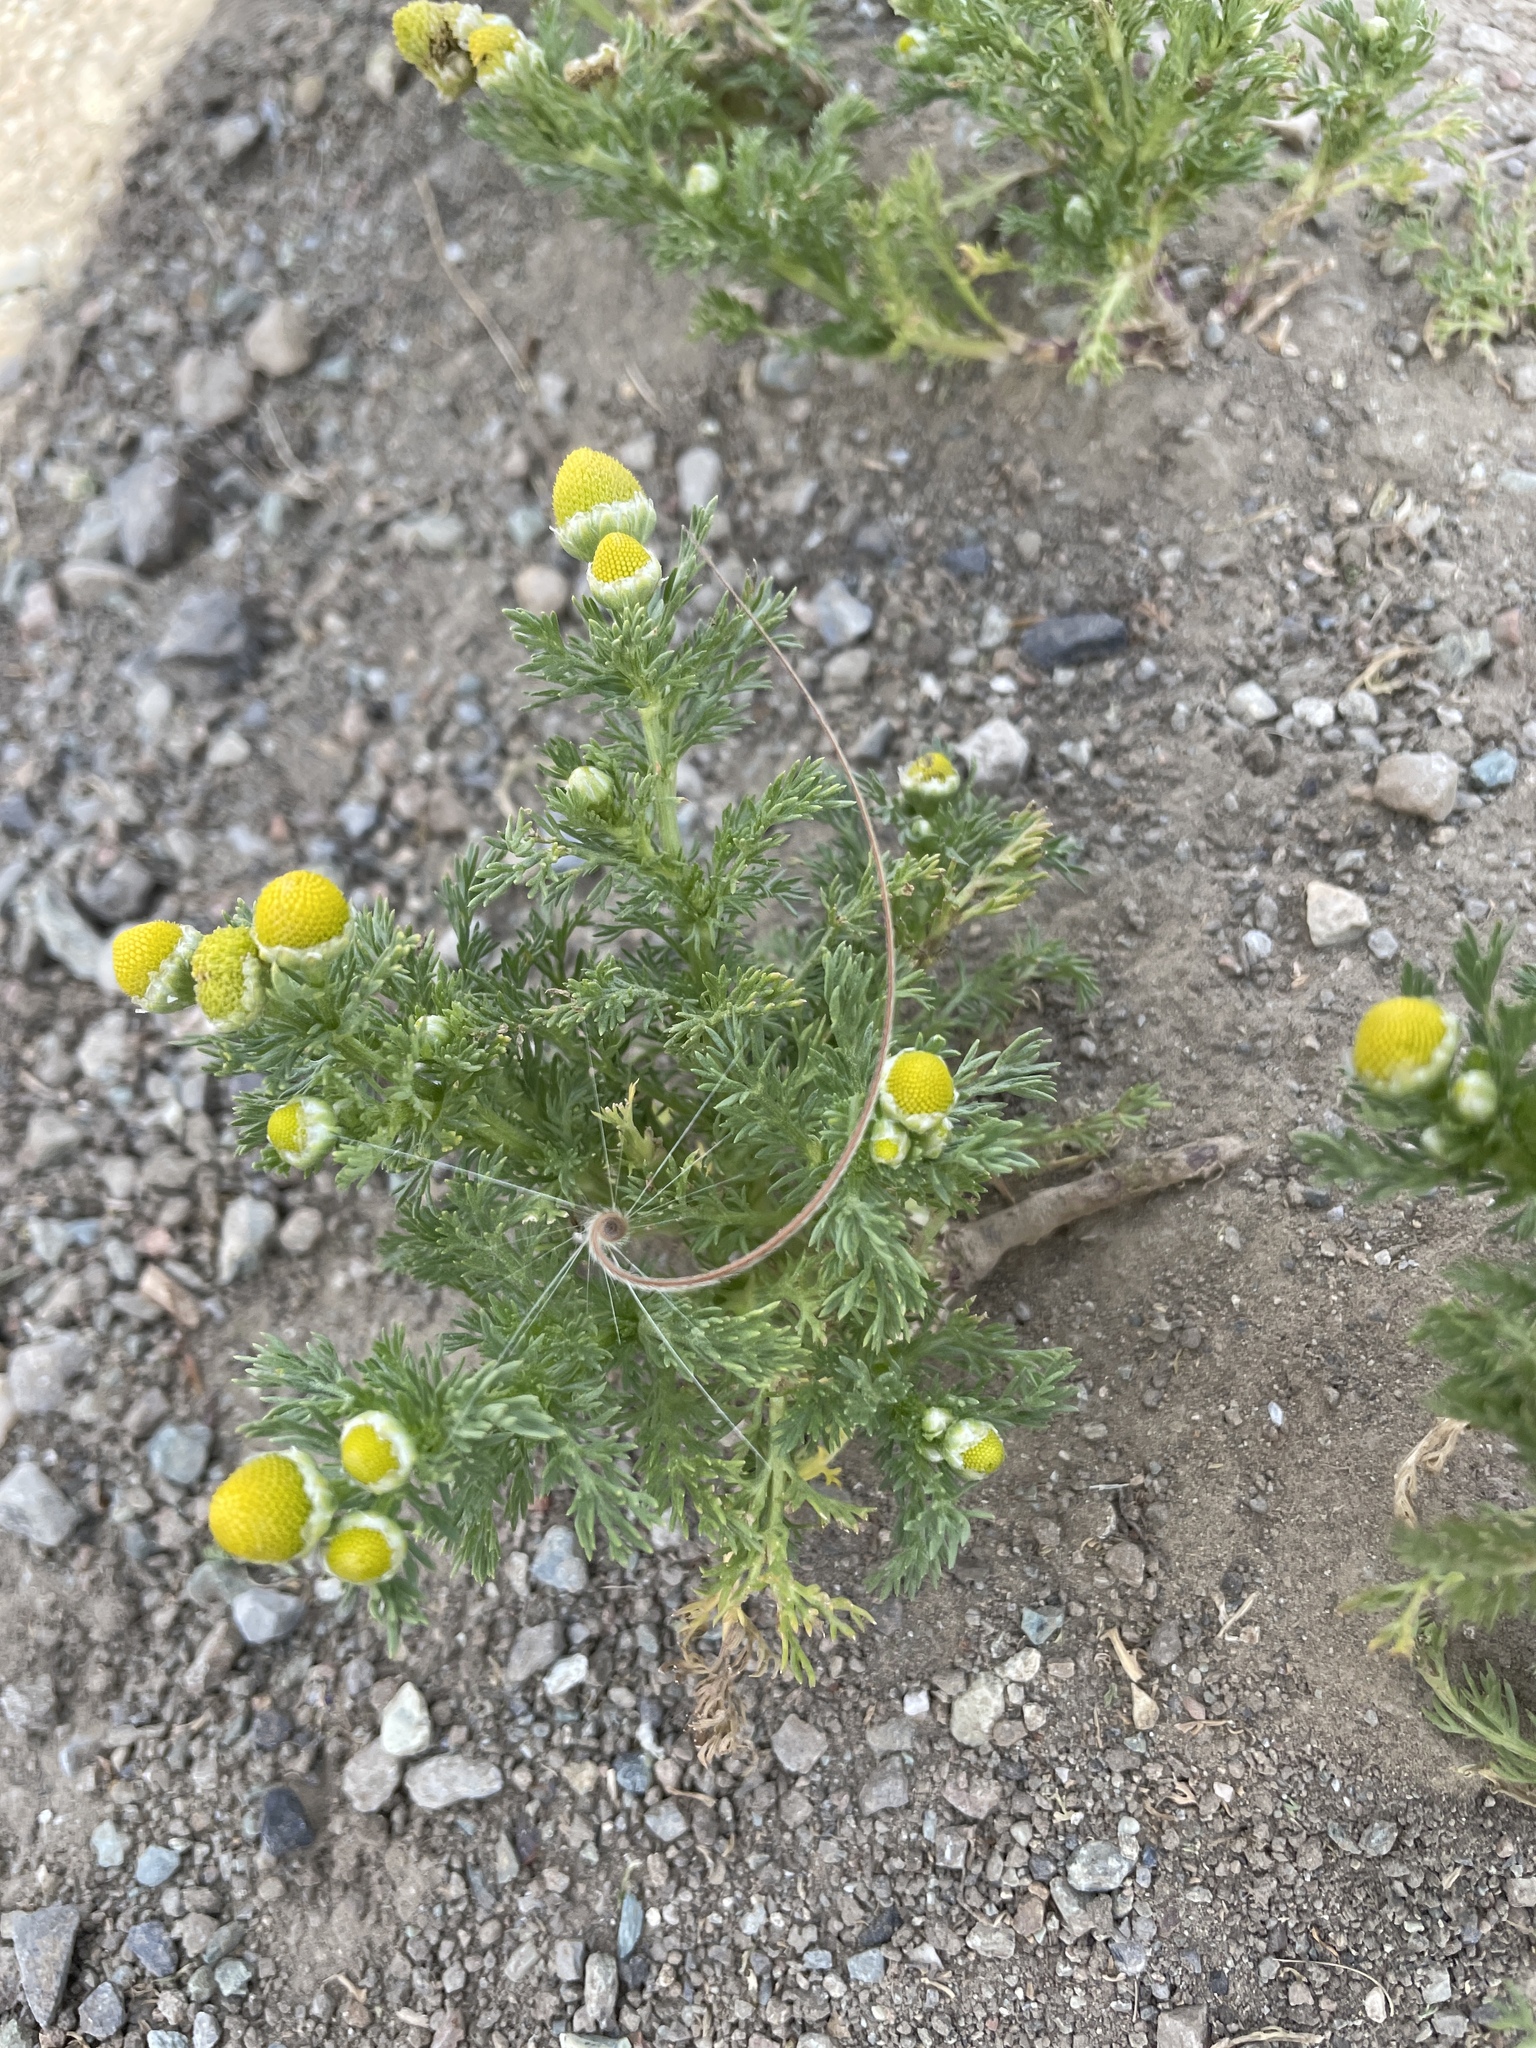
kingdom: Plantae
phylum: Tracheophyta
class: Magnoliopsida
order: Asterales
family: Asteraceae
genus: Matricaria
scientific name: Matricaria discoidea
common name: Disc mayweed
